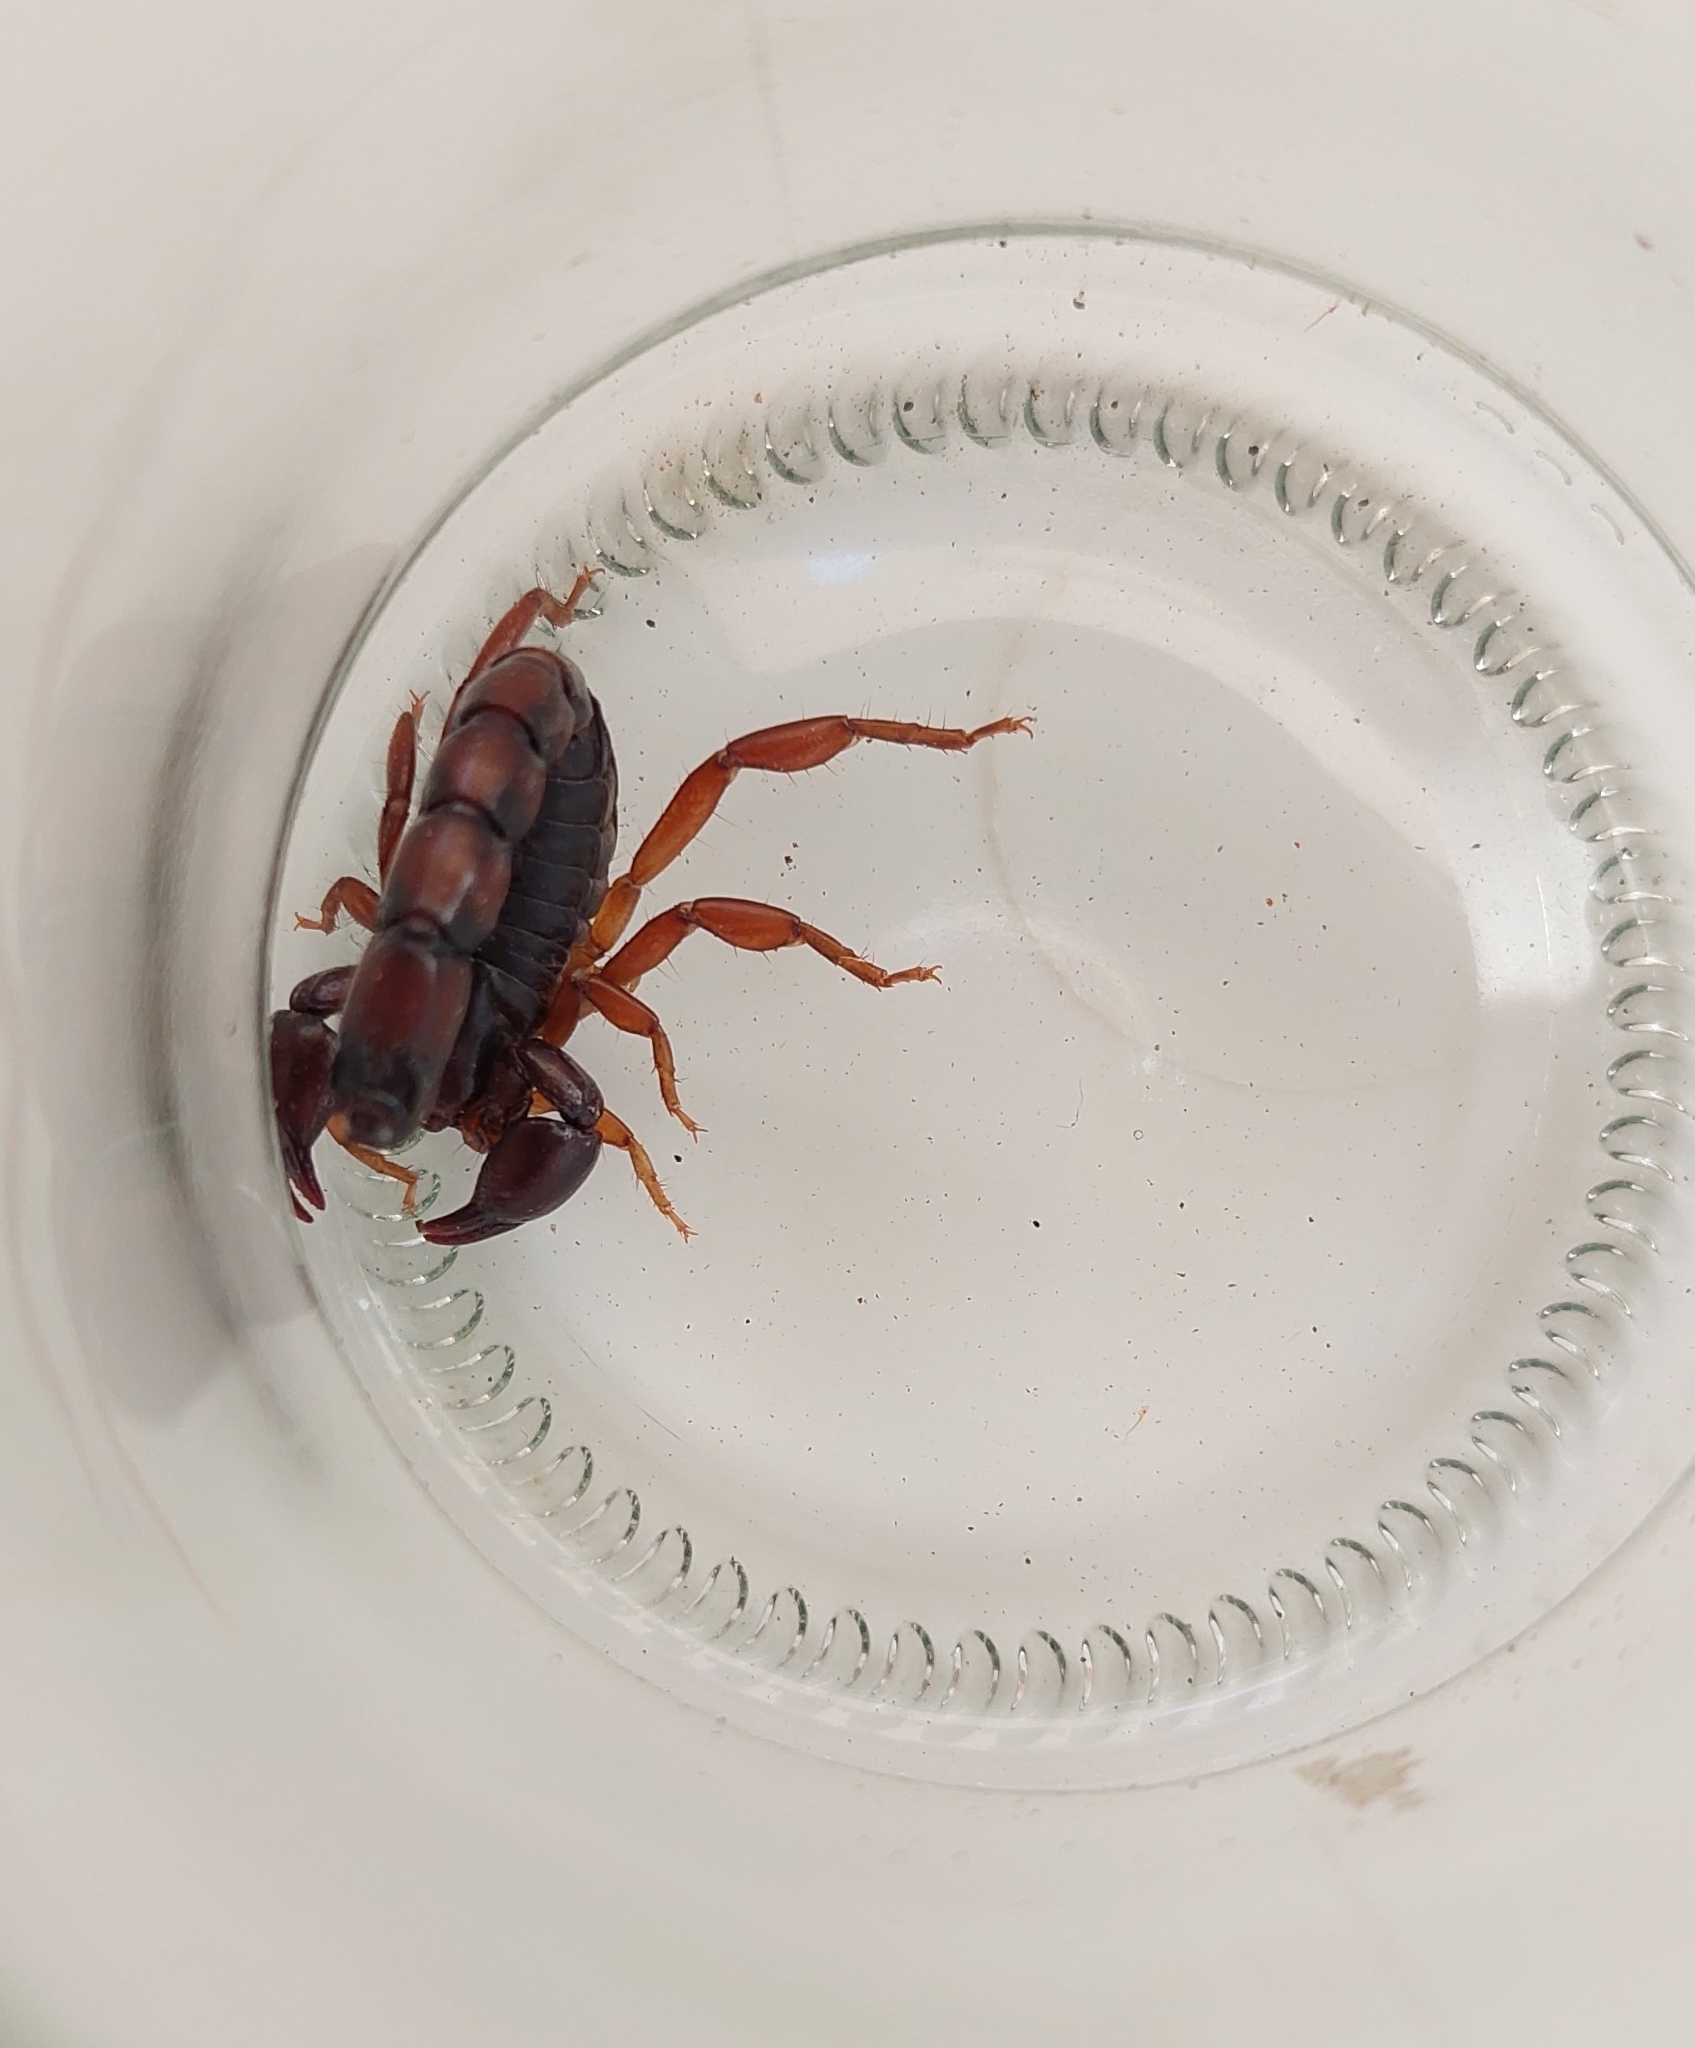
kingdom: Animalia
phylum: Arthropoda
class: Arachnida
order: Scorpiones
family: Bothriuridae
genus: Bothriurus
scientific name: Bothriurus bonariensis
